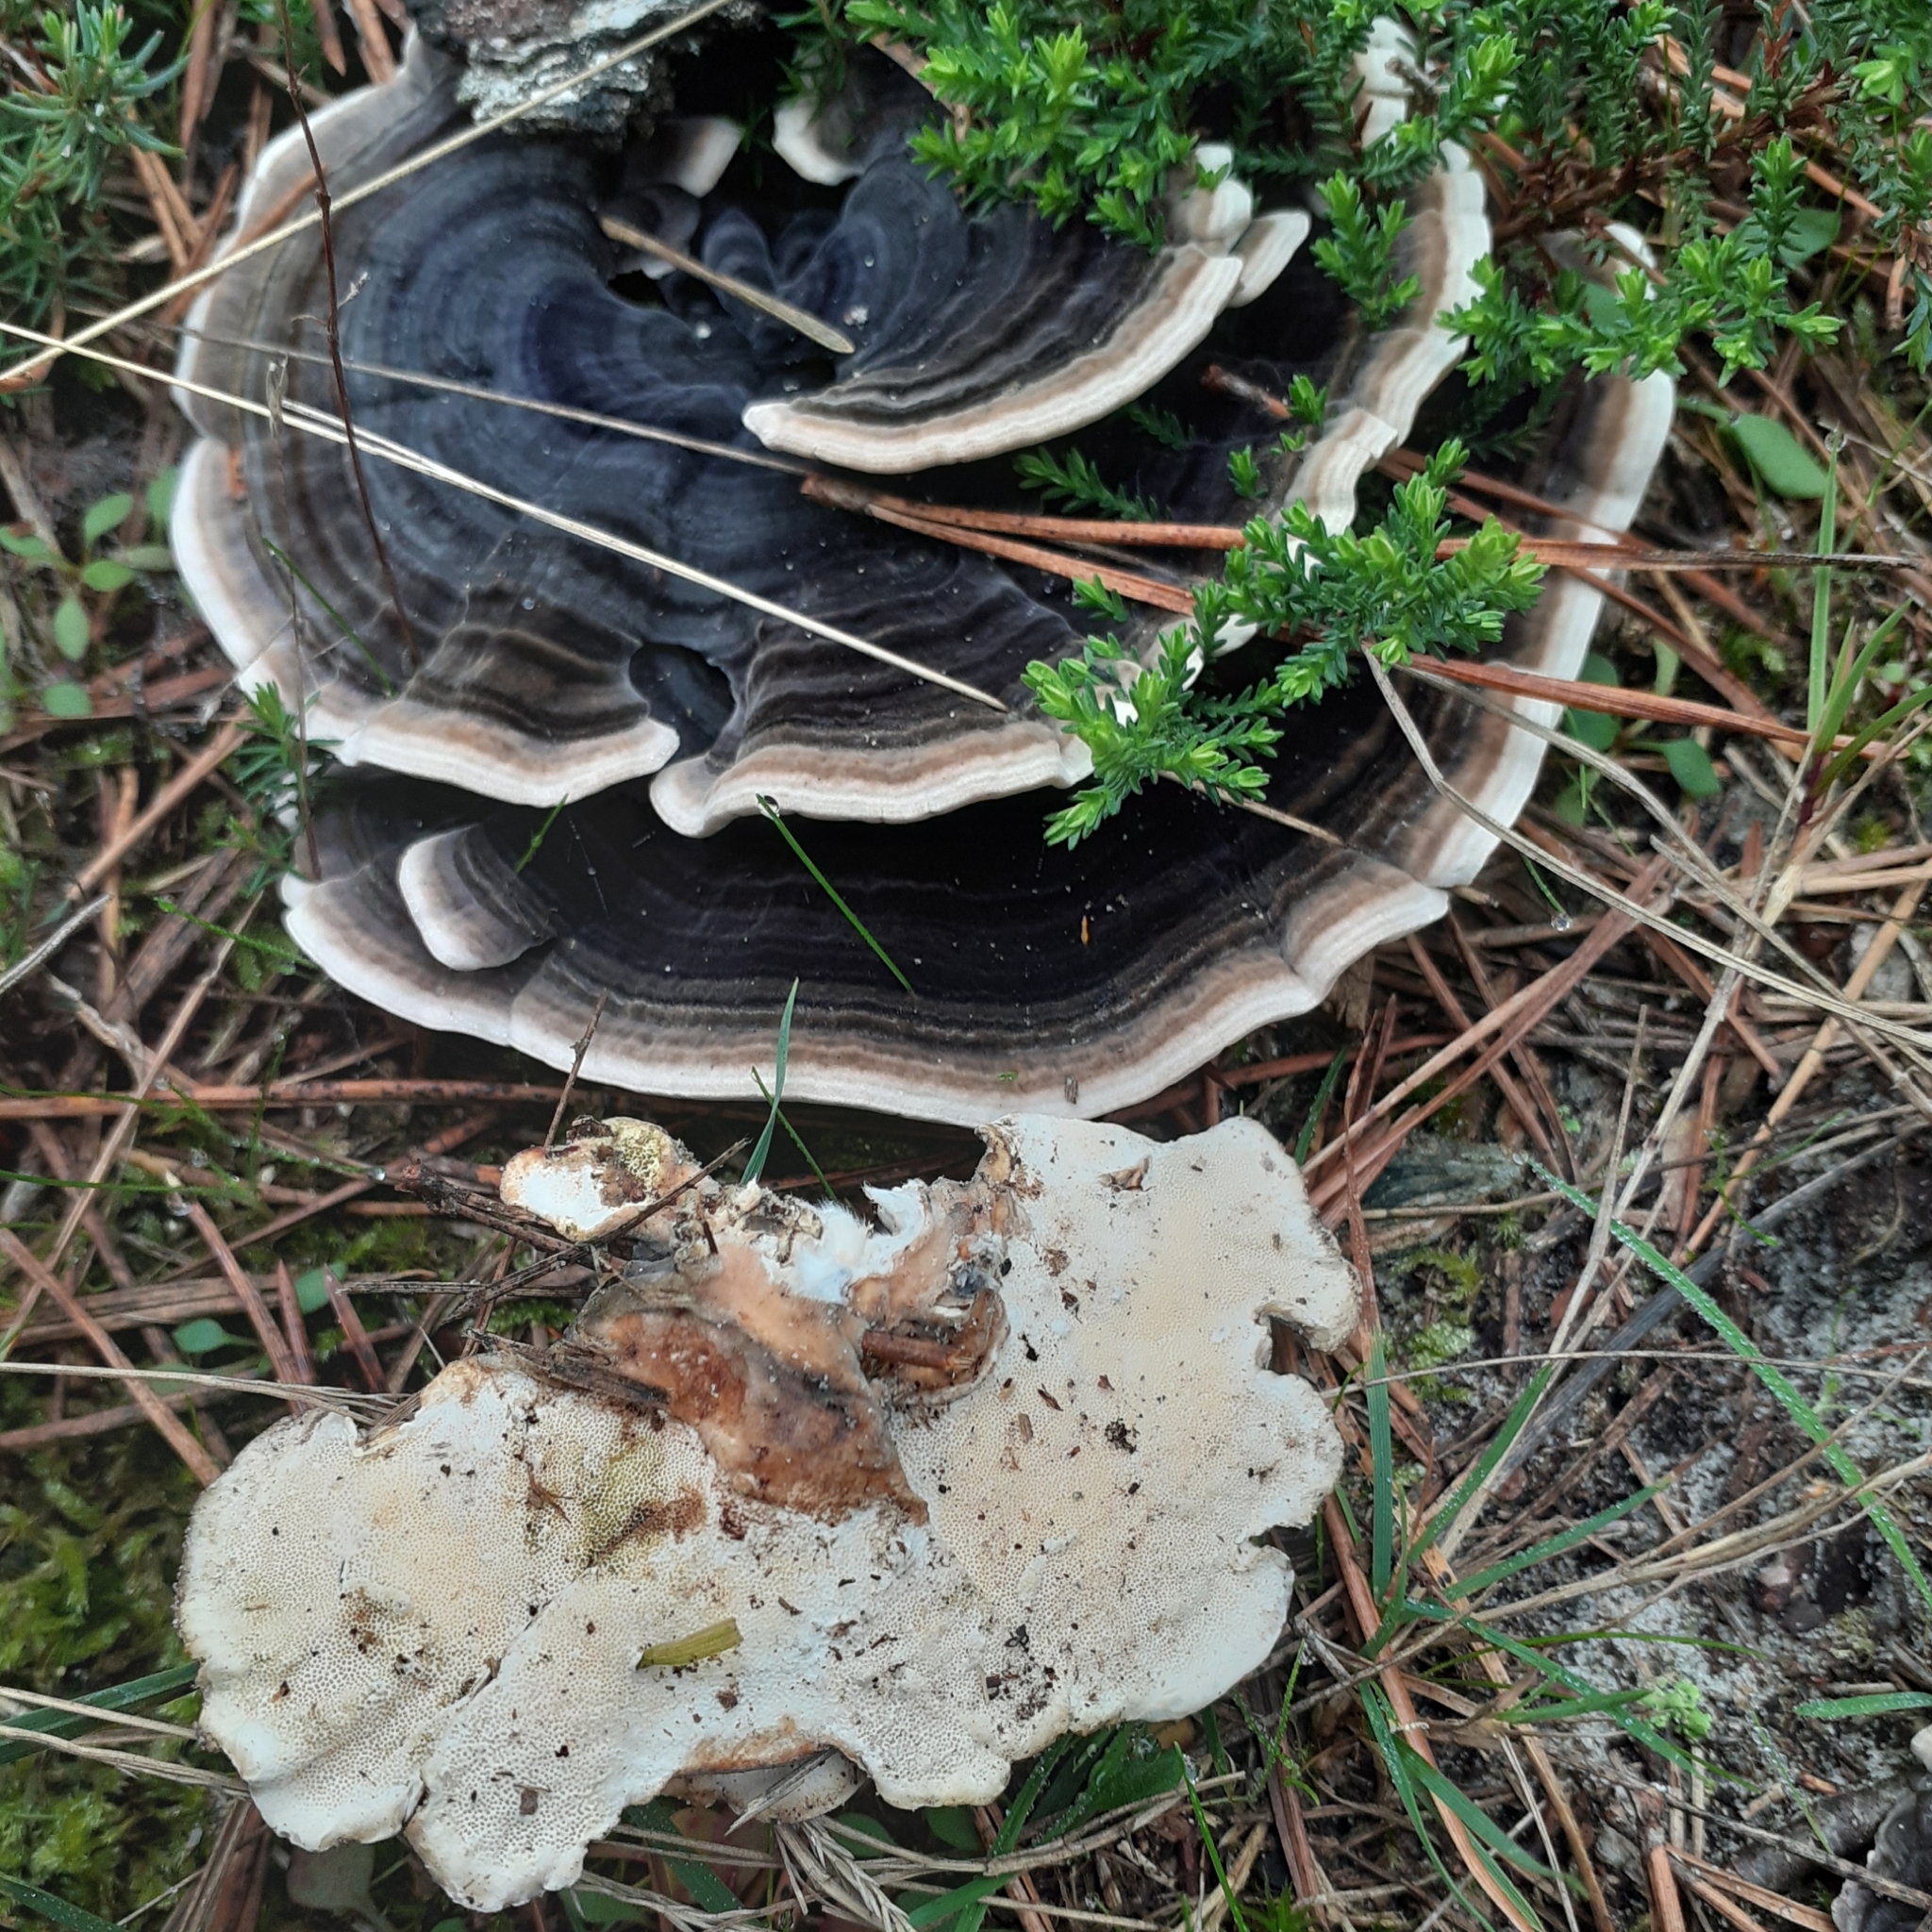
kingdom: Fungi
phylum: Basidiomycota
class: Agaricomycetes
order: Polyporales
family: Polyporaceae
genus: Trametes
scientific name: Trametes versicolor
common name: Turkeytail
